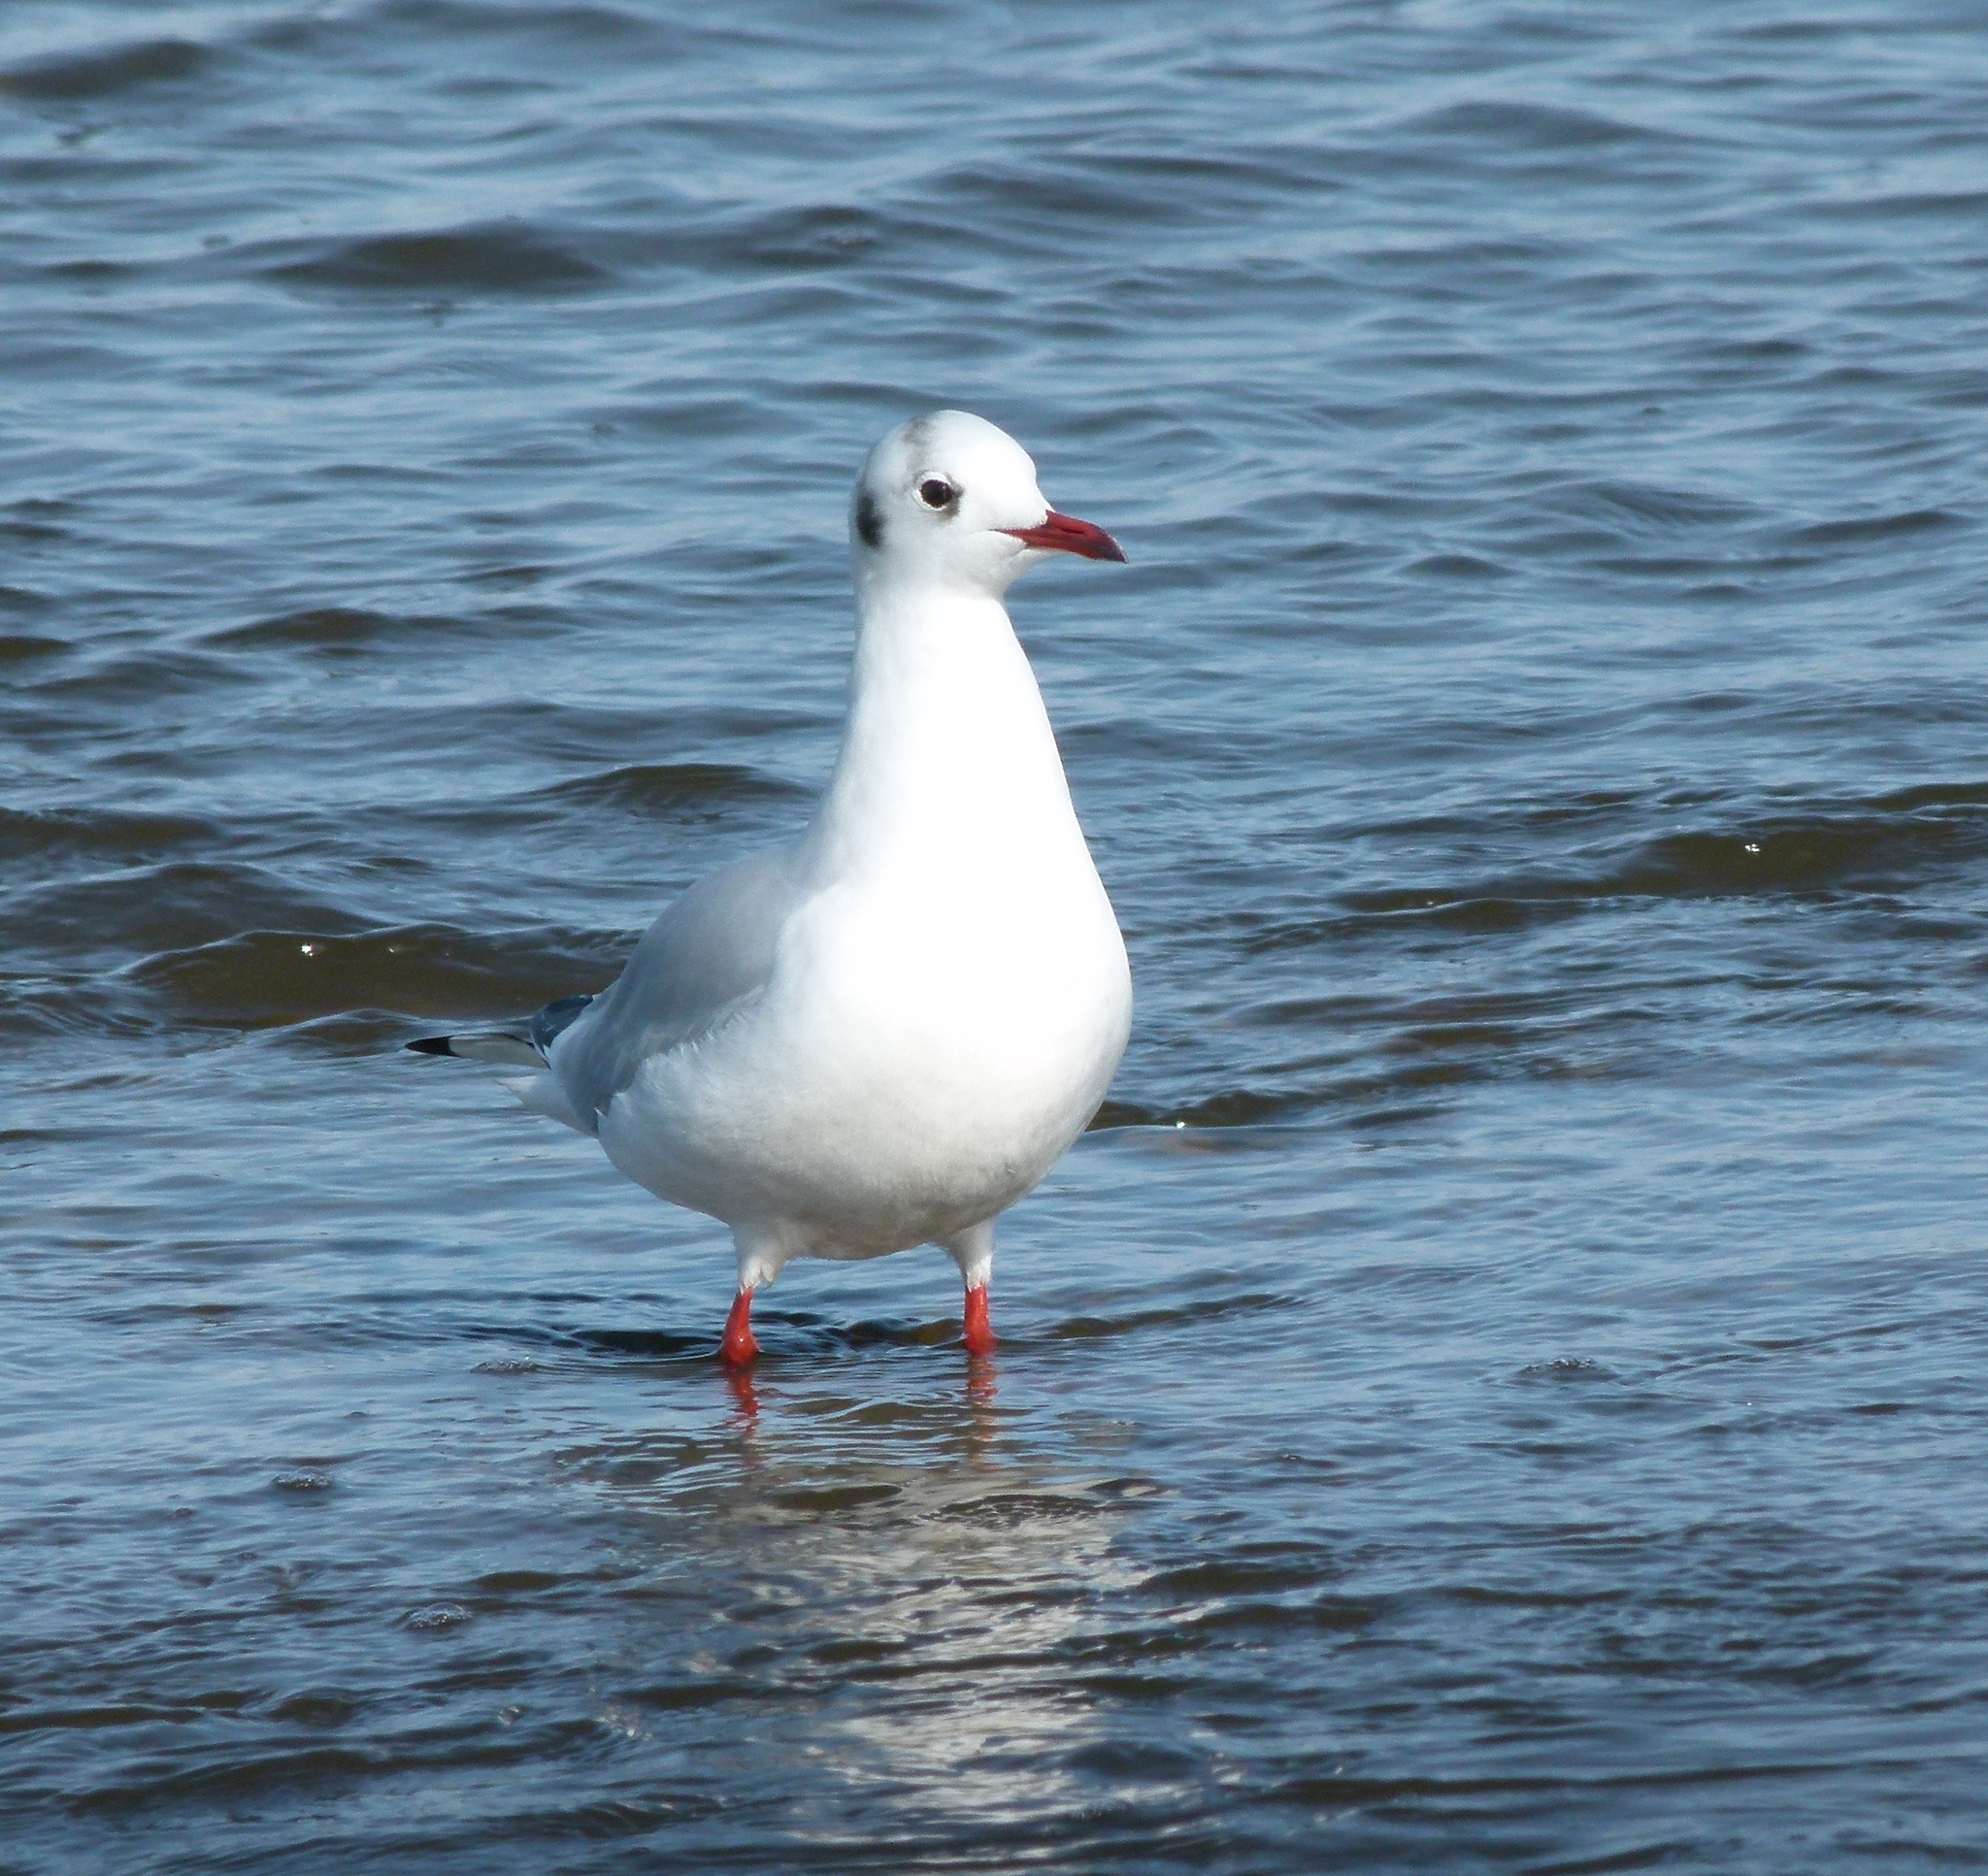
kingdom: Animalia
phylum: Chordata
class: Aves
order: Charadriiformes
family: Laridae
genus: Chroicocephalus
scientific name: Chroicocephalus ridibundus
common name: Black-headed gull
